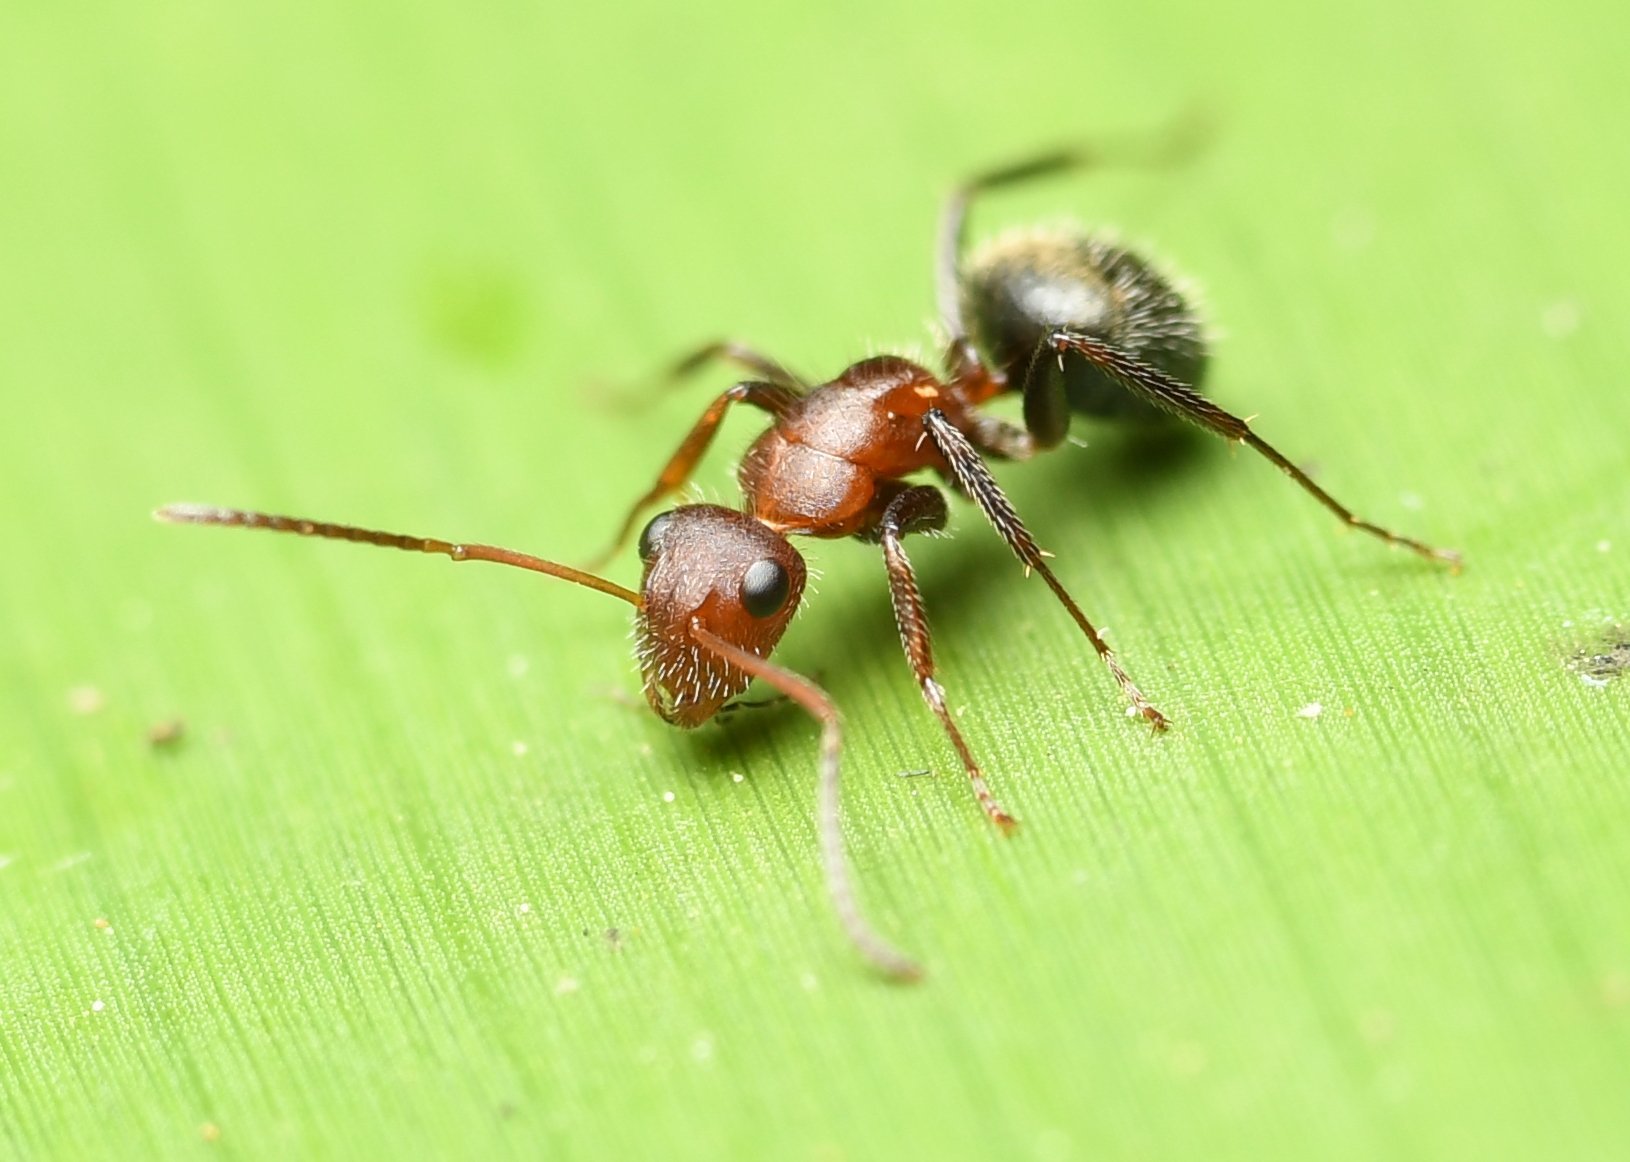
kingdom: Animalia
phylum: Arthropoda
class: Insecta
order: Hymenoptera
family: Formicidae
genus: Camponotus
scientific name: Camponotus planatus
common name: Compact carpenter ant
